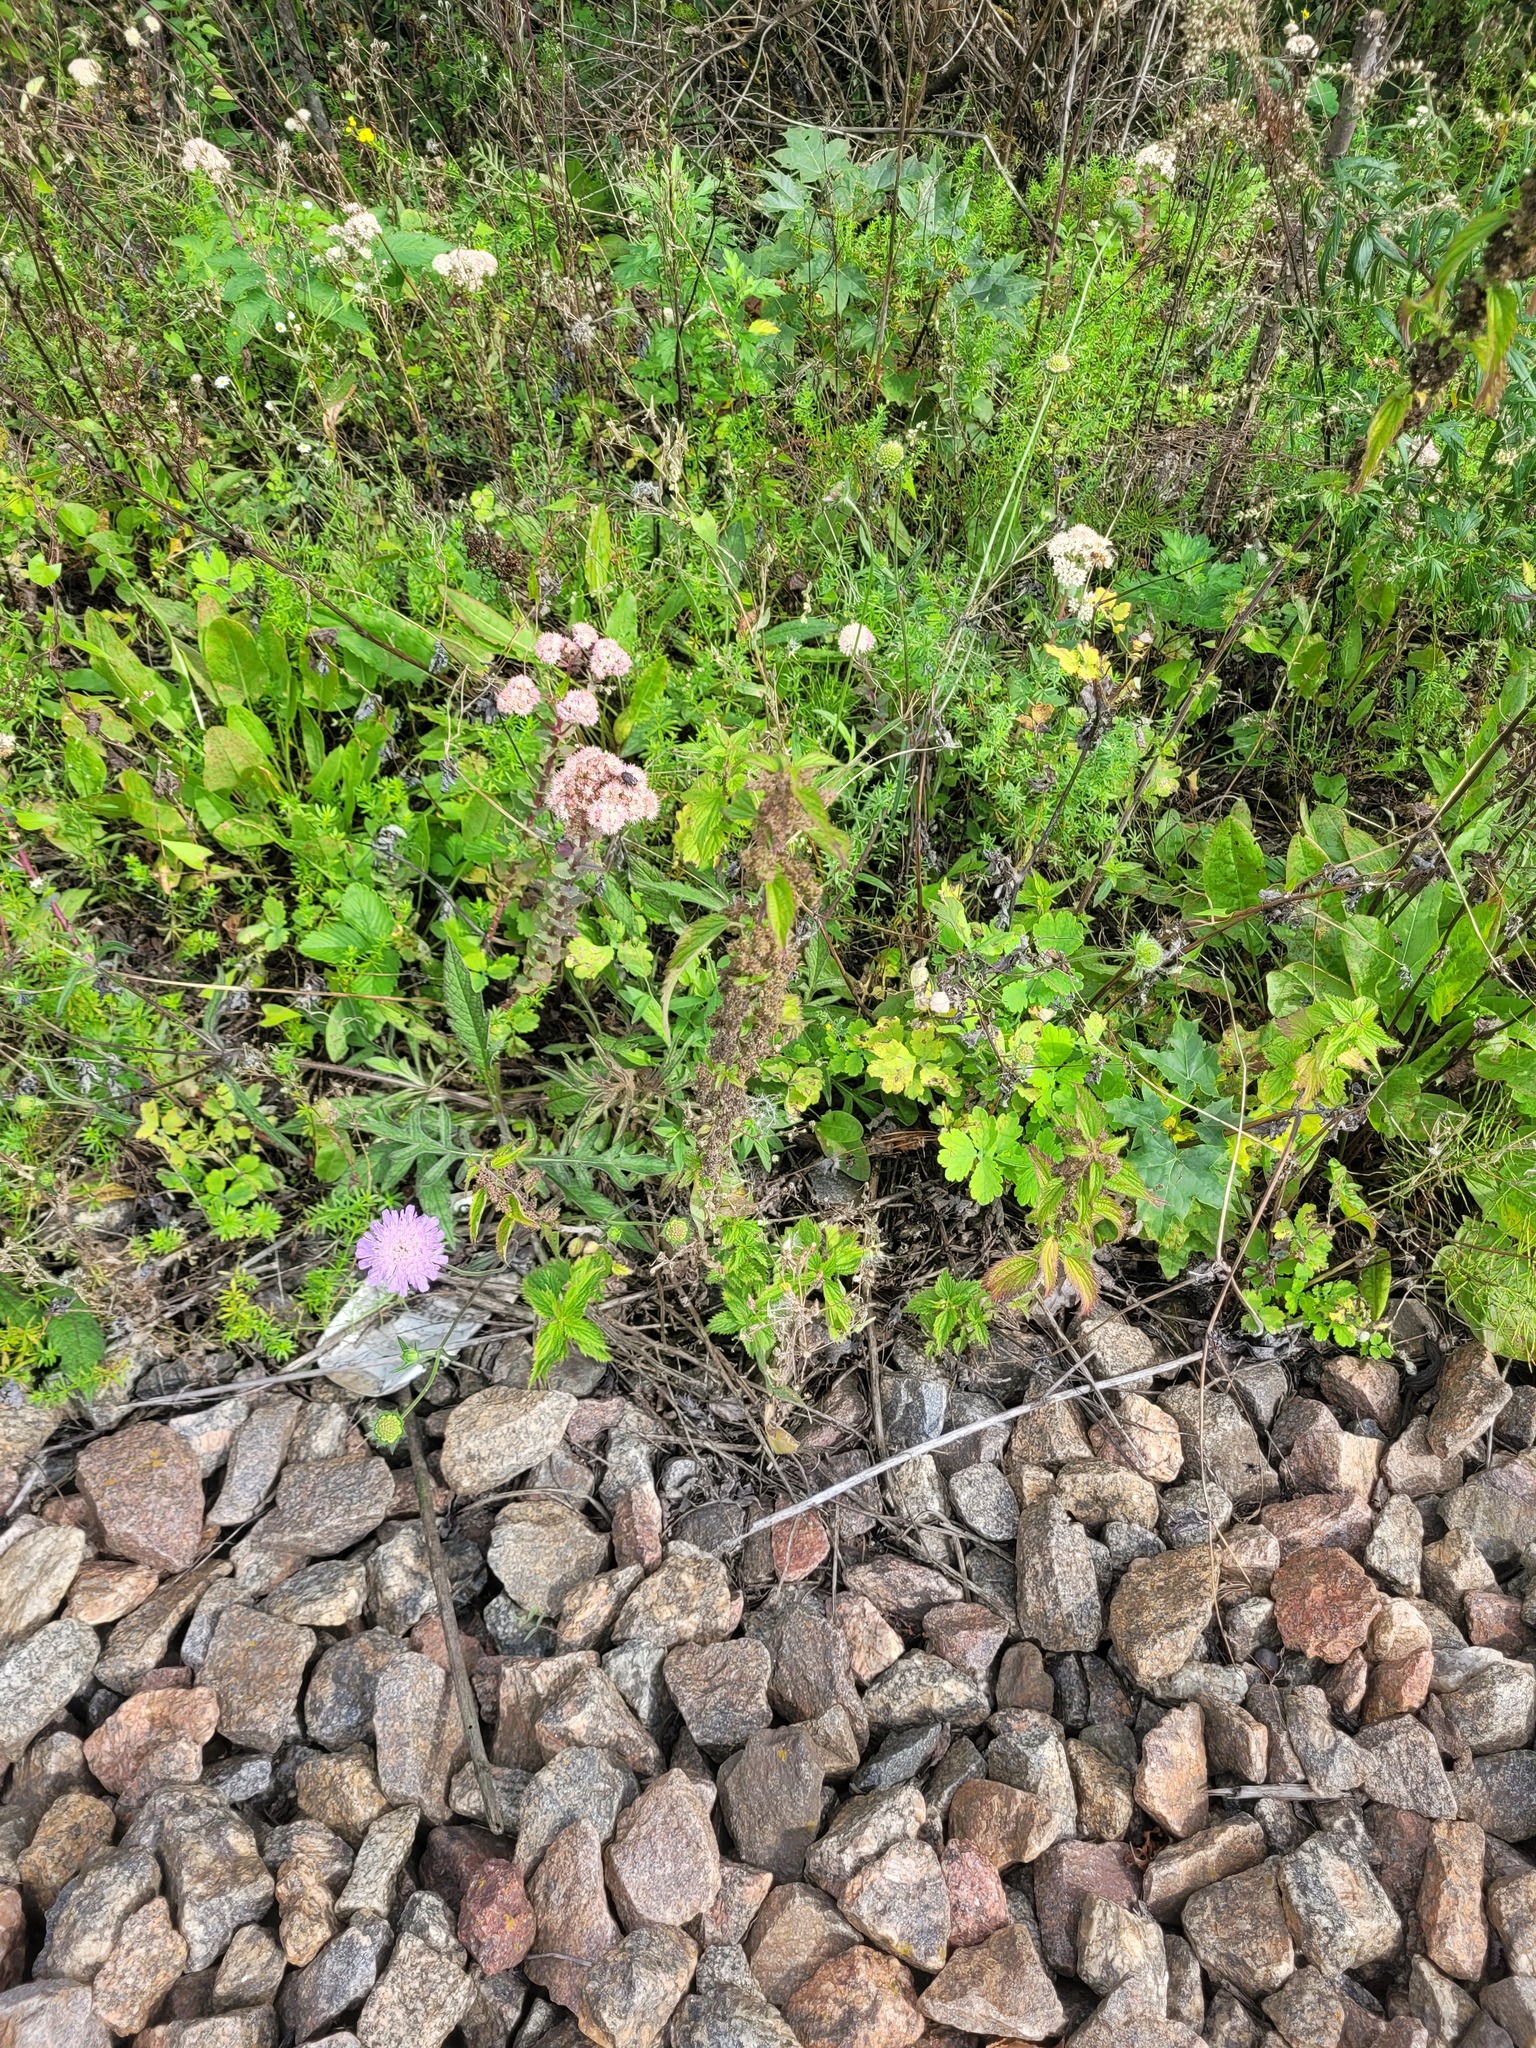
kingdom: Plantae
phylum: Tracheophyta
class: Magnoliopsida
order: Saxifragales
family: Crassulaceae
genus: Hylotelephium
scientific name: Hylotelephium maximum
